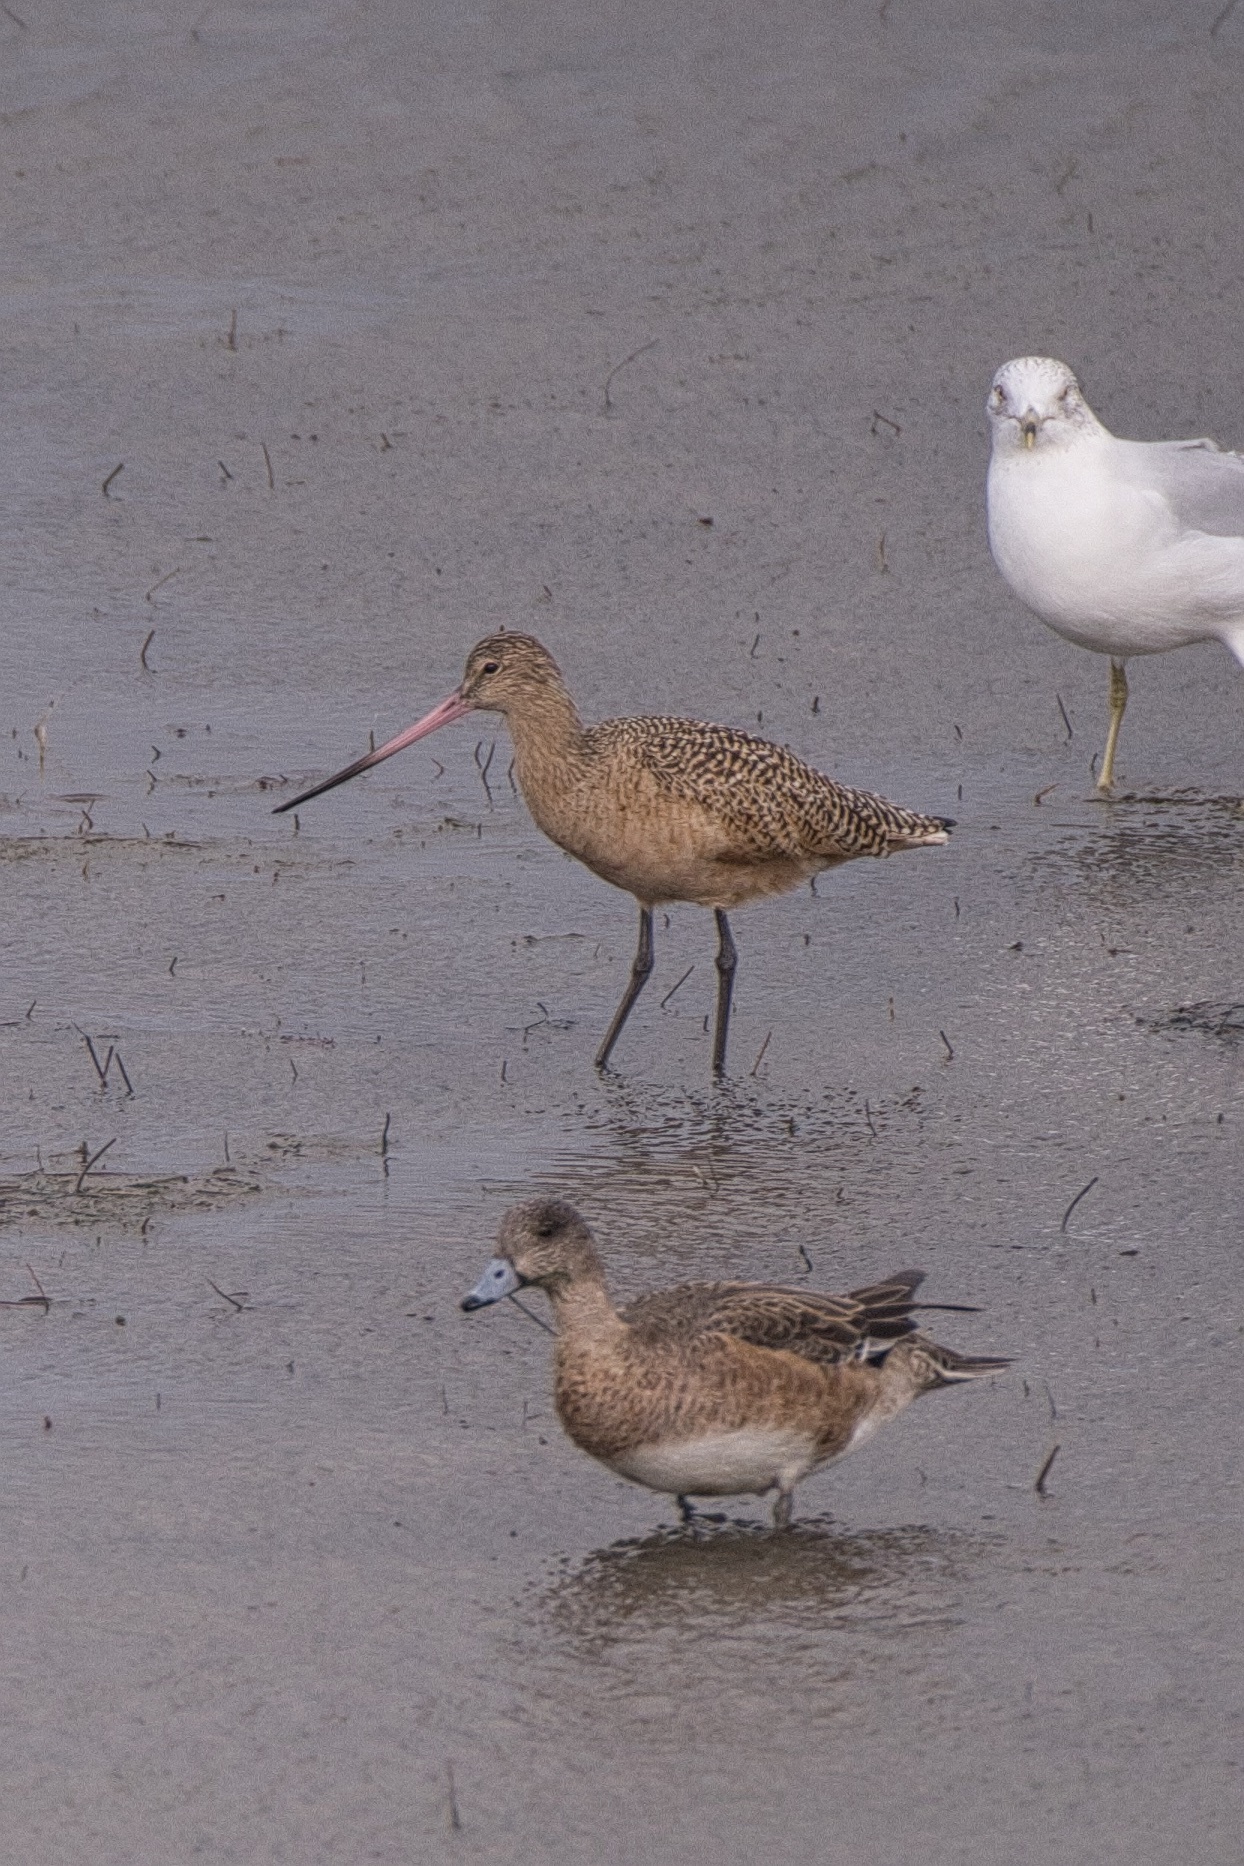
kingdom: Animalia
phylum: Chordata
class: Aves
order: Charadriiformes
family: Scolopacidae
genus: Limosa
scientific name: Limosa fedoa
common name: Marbled godwit
